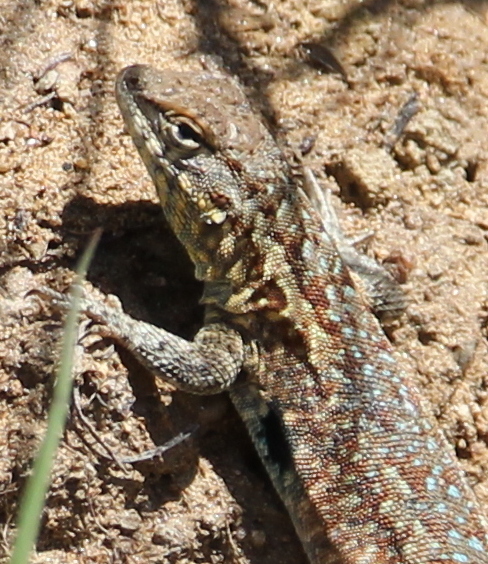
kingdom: Animalia
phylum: Chordata
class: Squamata
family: Phrynosomatidae
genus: Uta
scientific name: Uta stansburiana
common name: Side-blotched lizard
